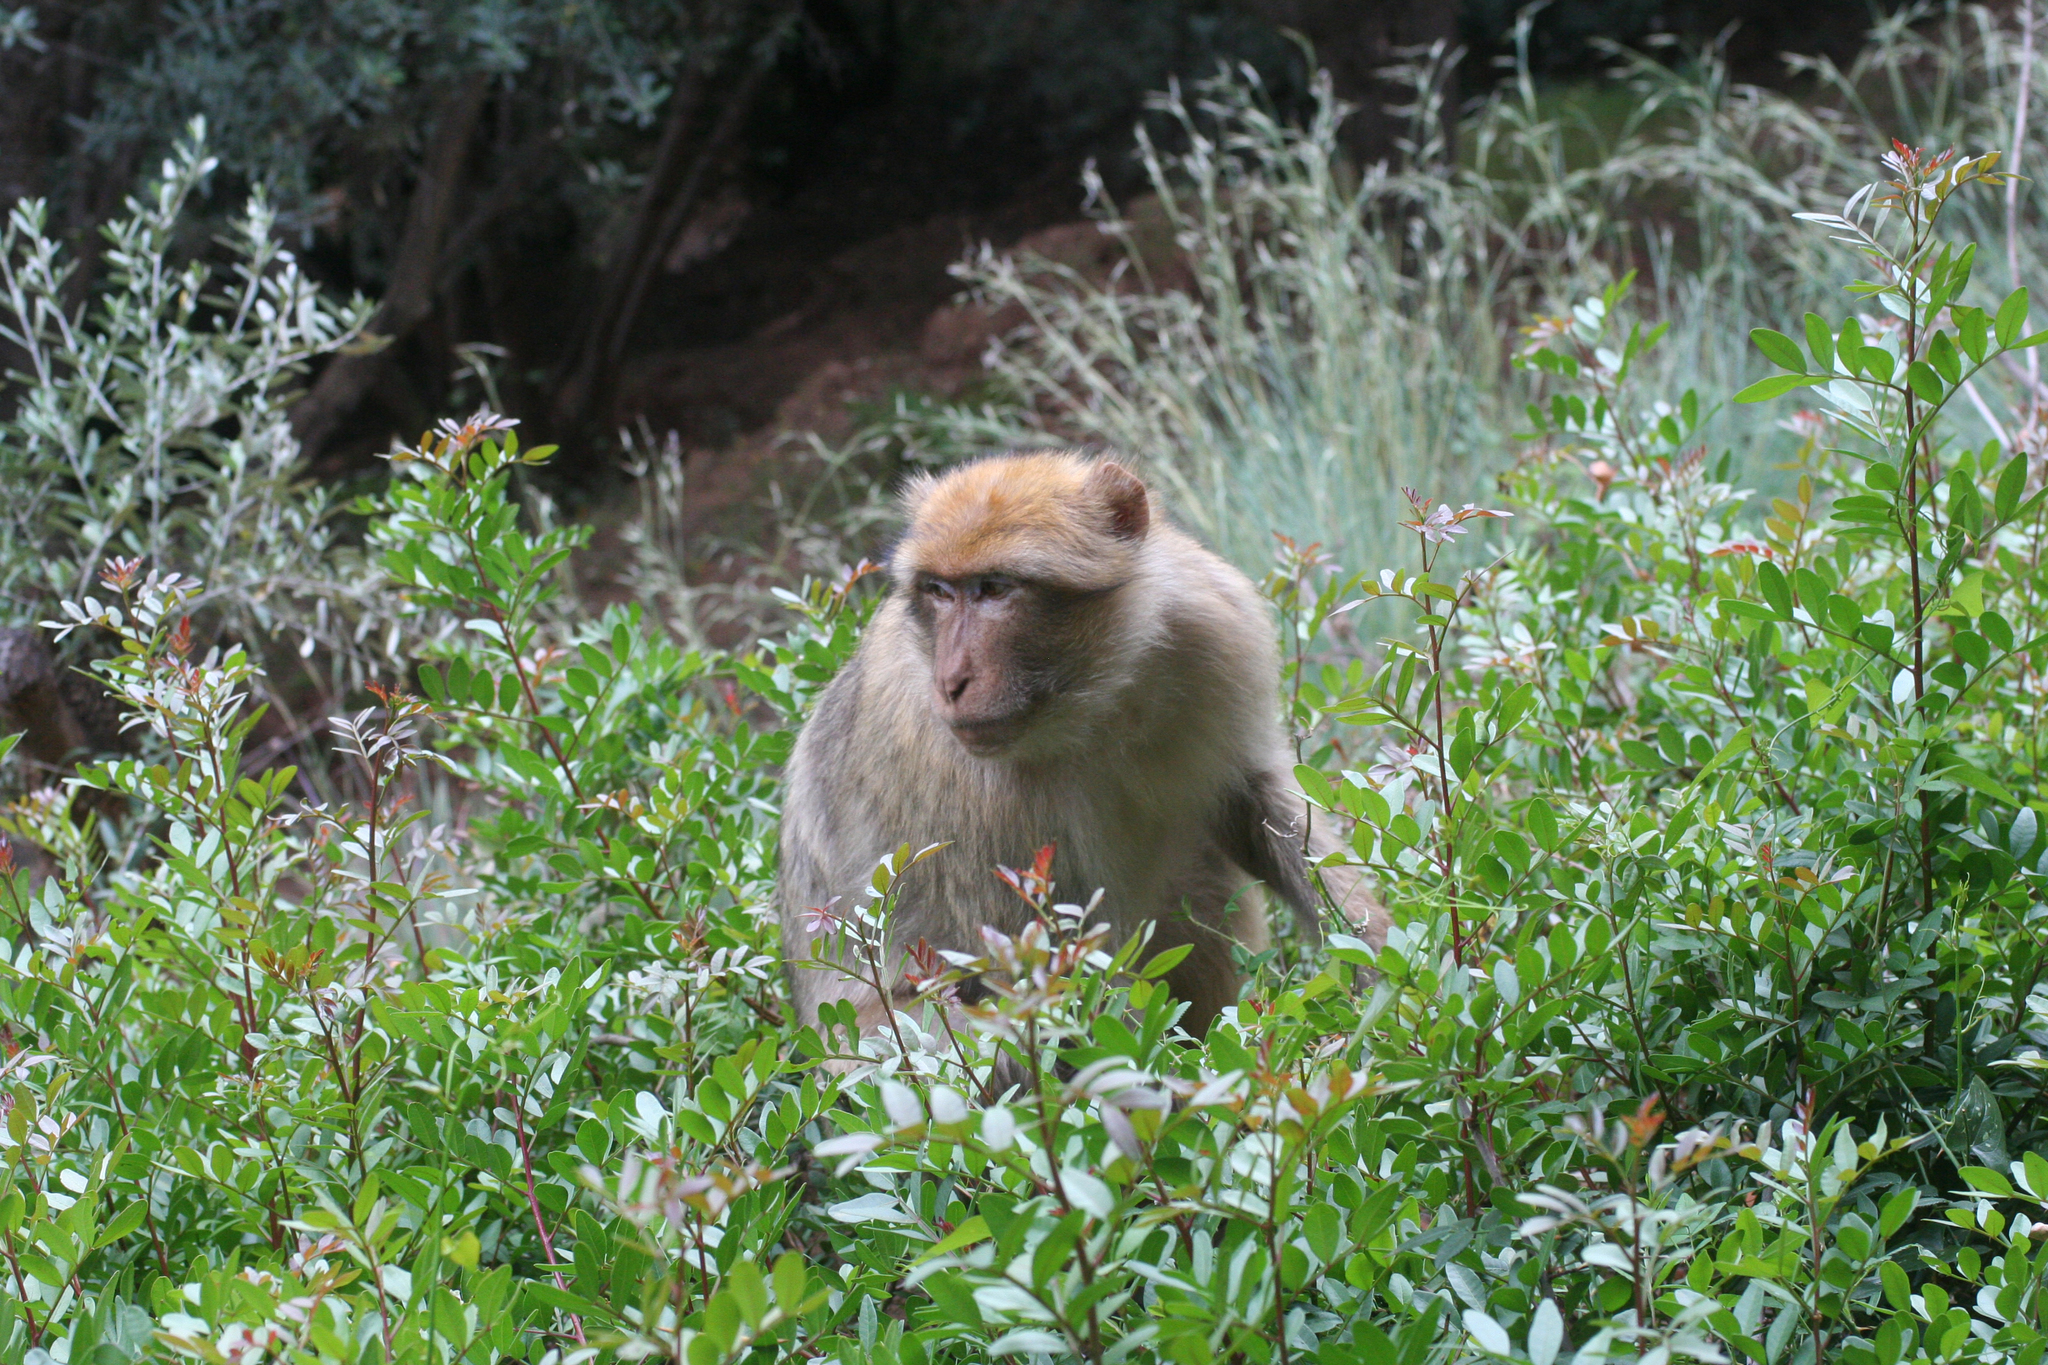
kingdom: Animalia
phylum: Chordata
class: Mammalia
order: Primates
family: Cercopithecidae
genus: Macaca
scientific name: Macaca sylvanus
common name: Barbary macaque
